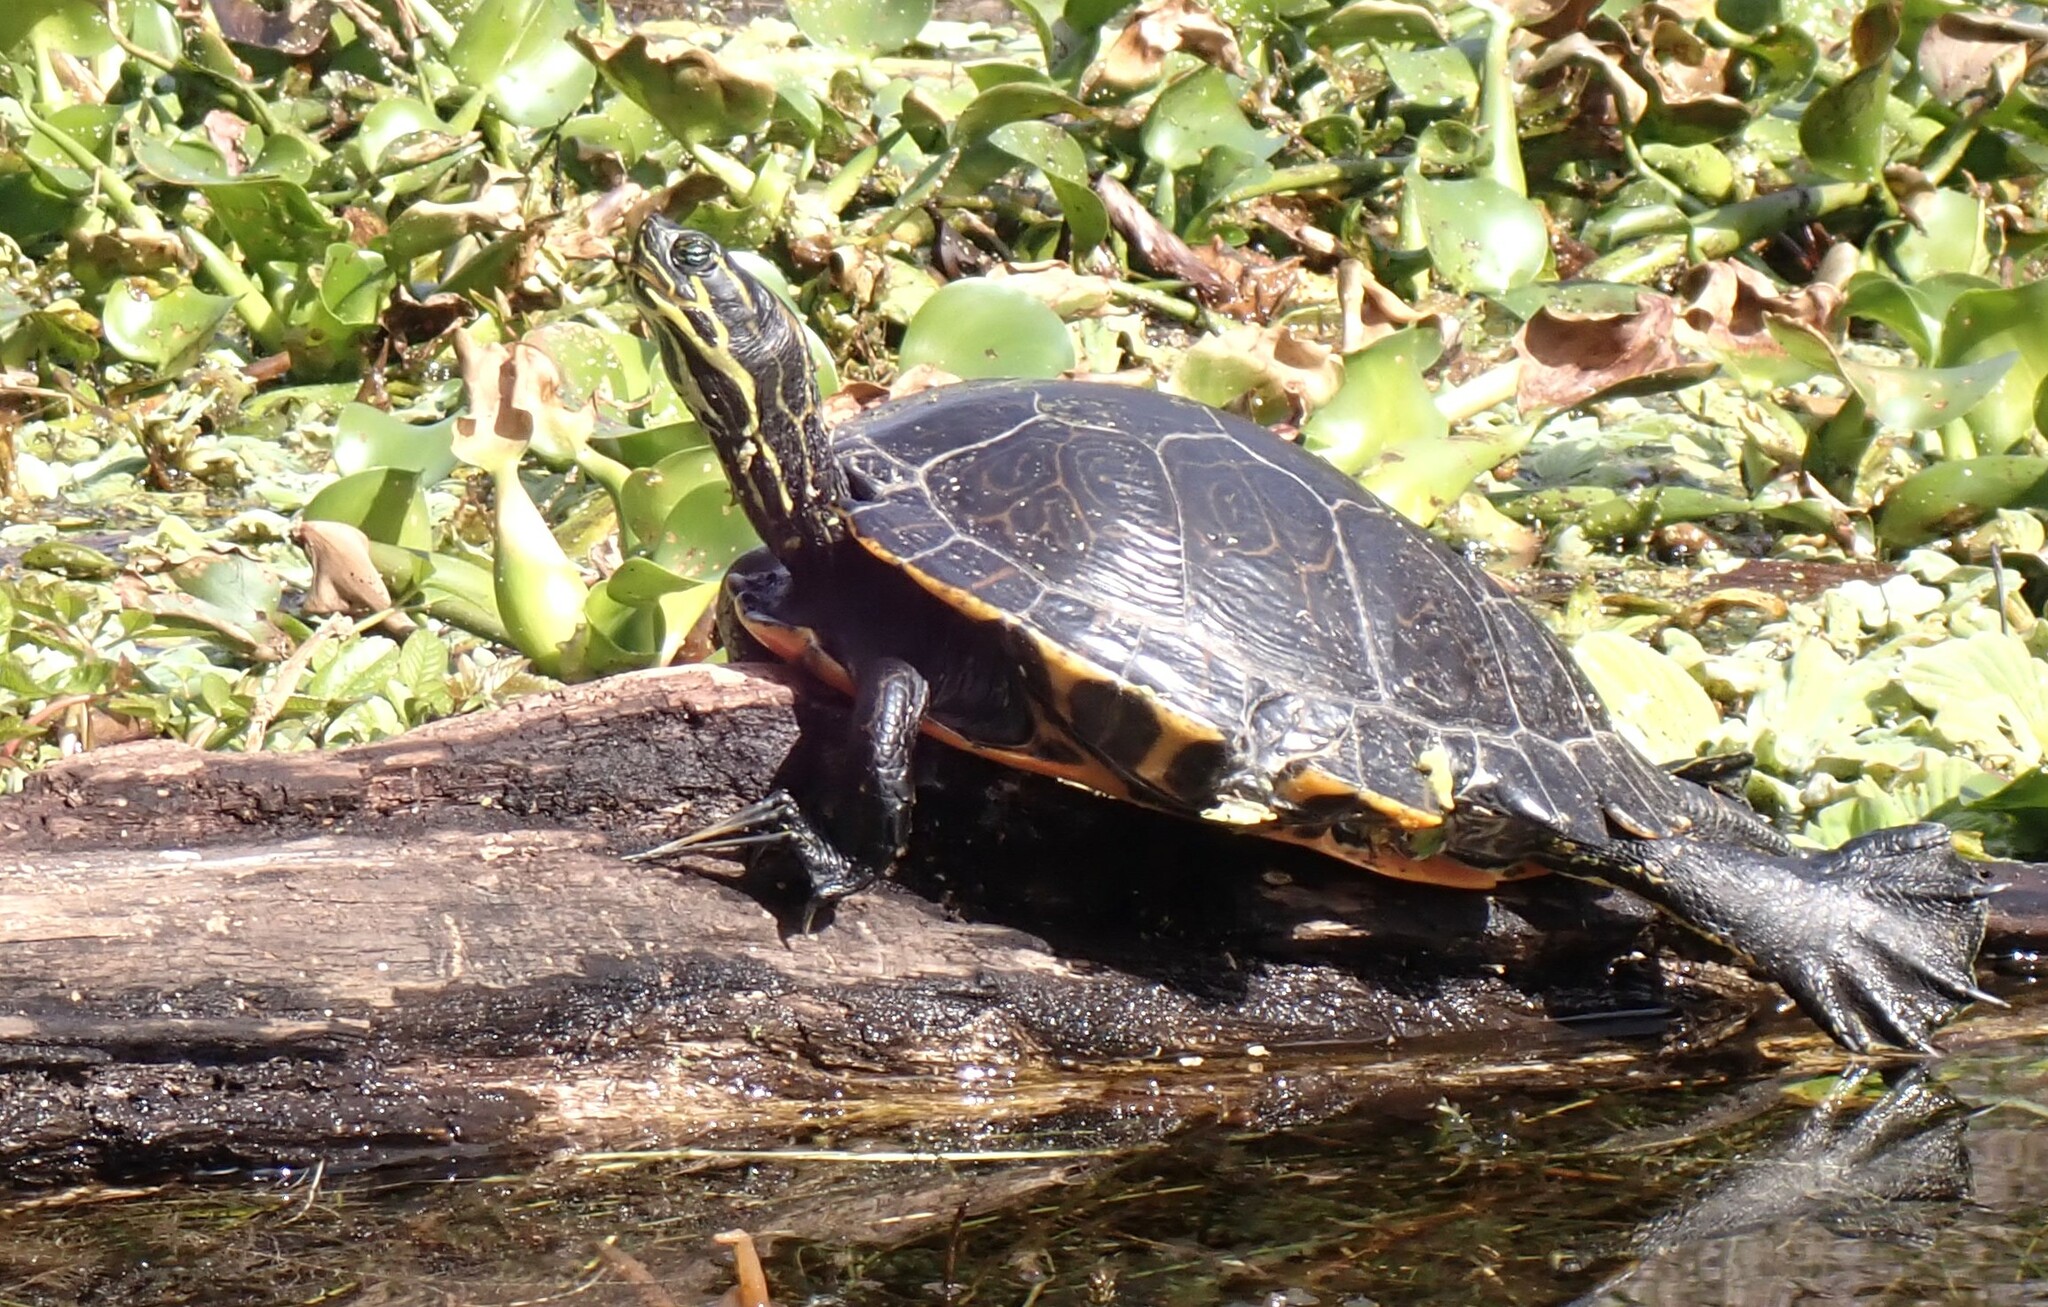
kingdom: Animalia
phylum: Chordata
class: Testudines
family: Emydidae
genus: Pseudemys
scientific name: Pseudemys concinna
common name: Eastern river cooter
